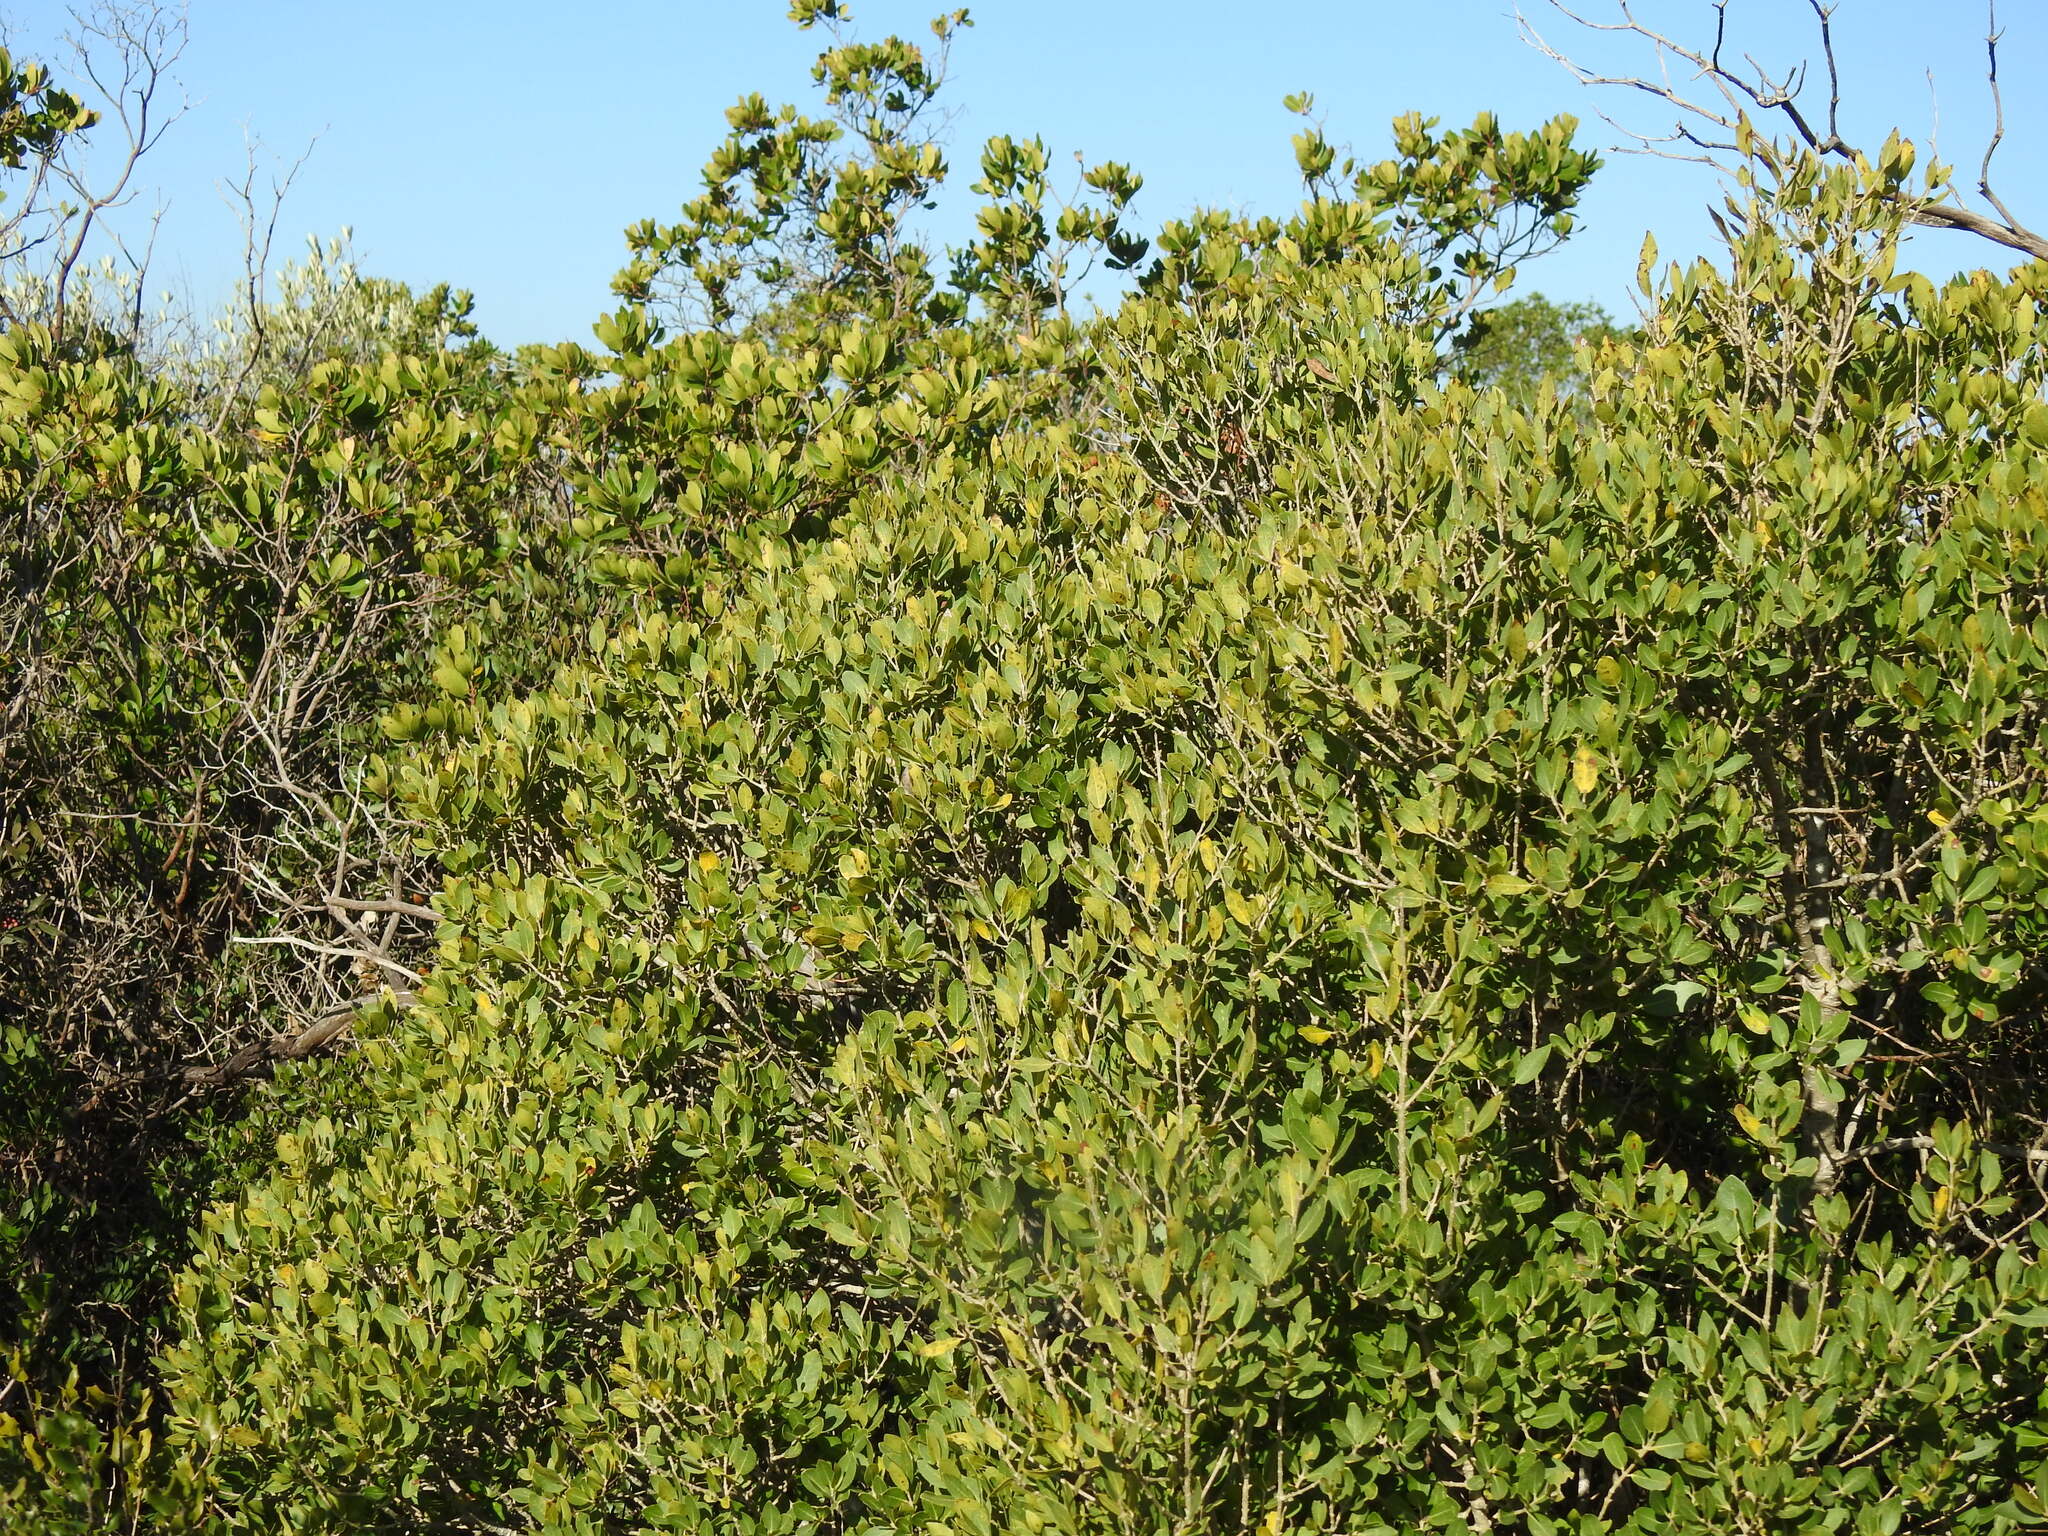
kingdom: Plantae
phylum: Tracheophyta
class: Magnoliopsida
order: Lamiales
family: Oleaceae
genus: Phillyrea
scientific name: Phillyrea latifolia
